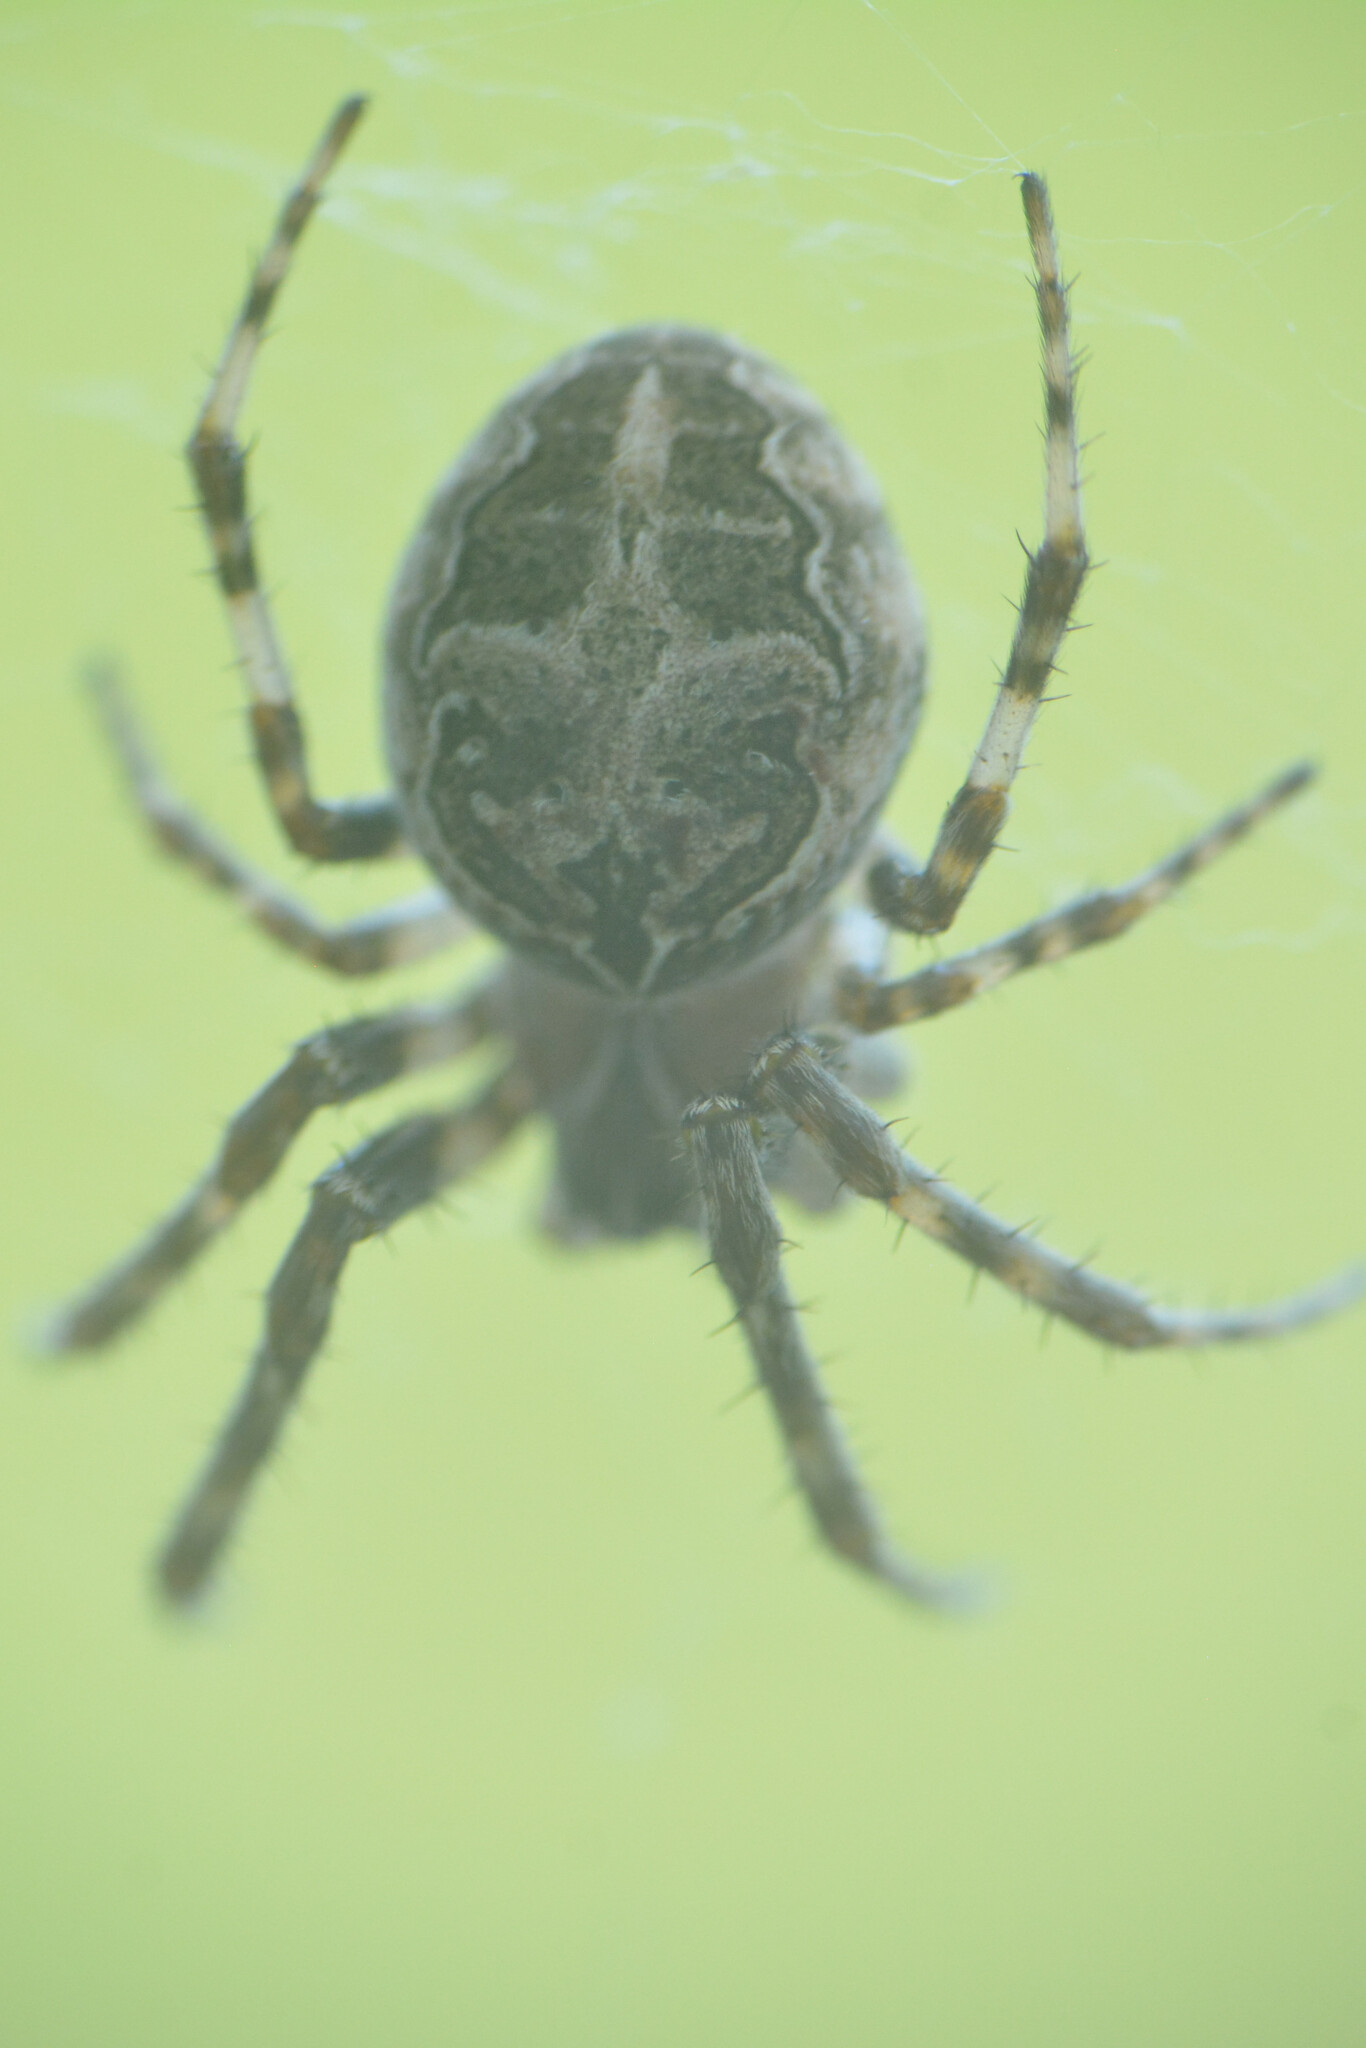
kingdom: Animalia
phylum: Arthropoda
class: Arachnida
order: Araneae
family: Araneidae
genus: Larinioides
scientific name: Larinioides sclopetarius
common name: Bridge orbweaver
